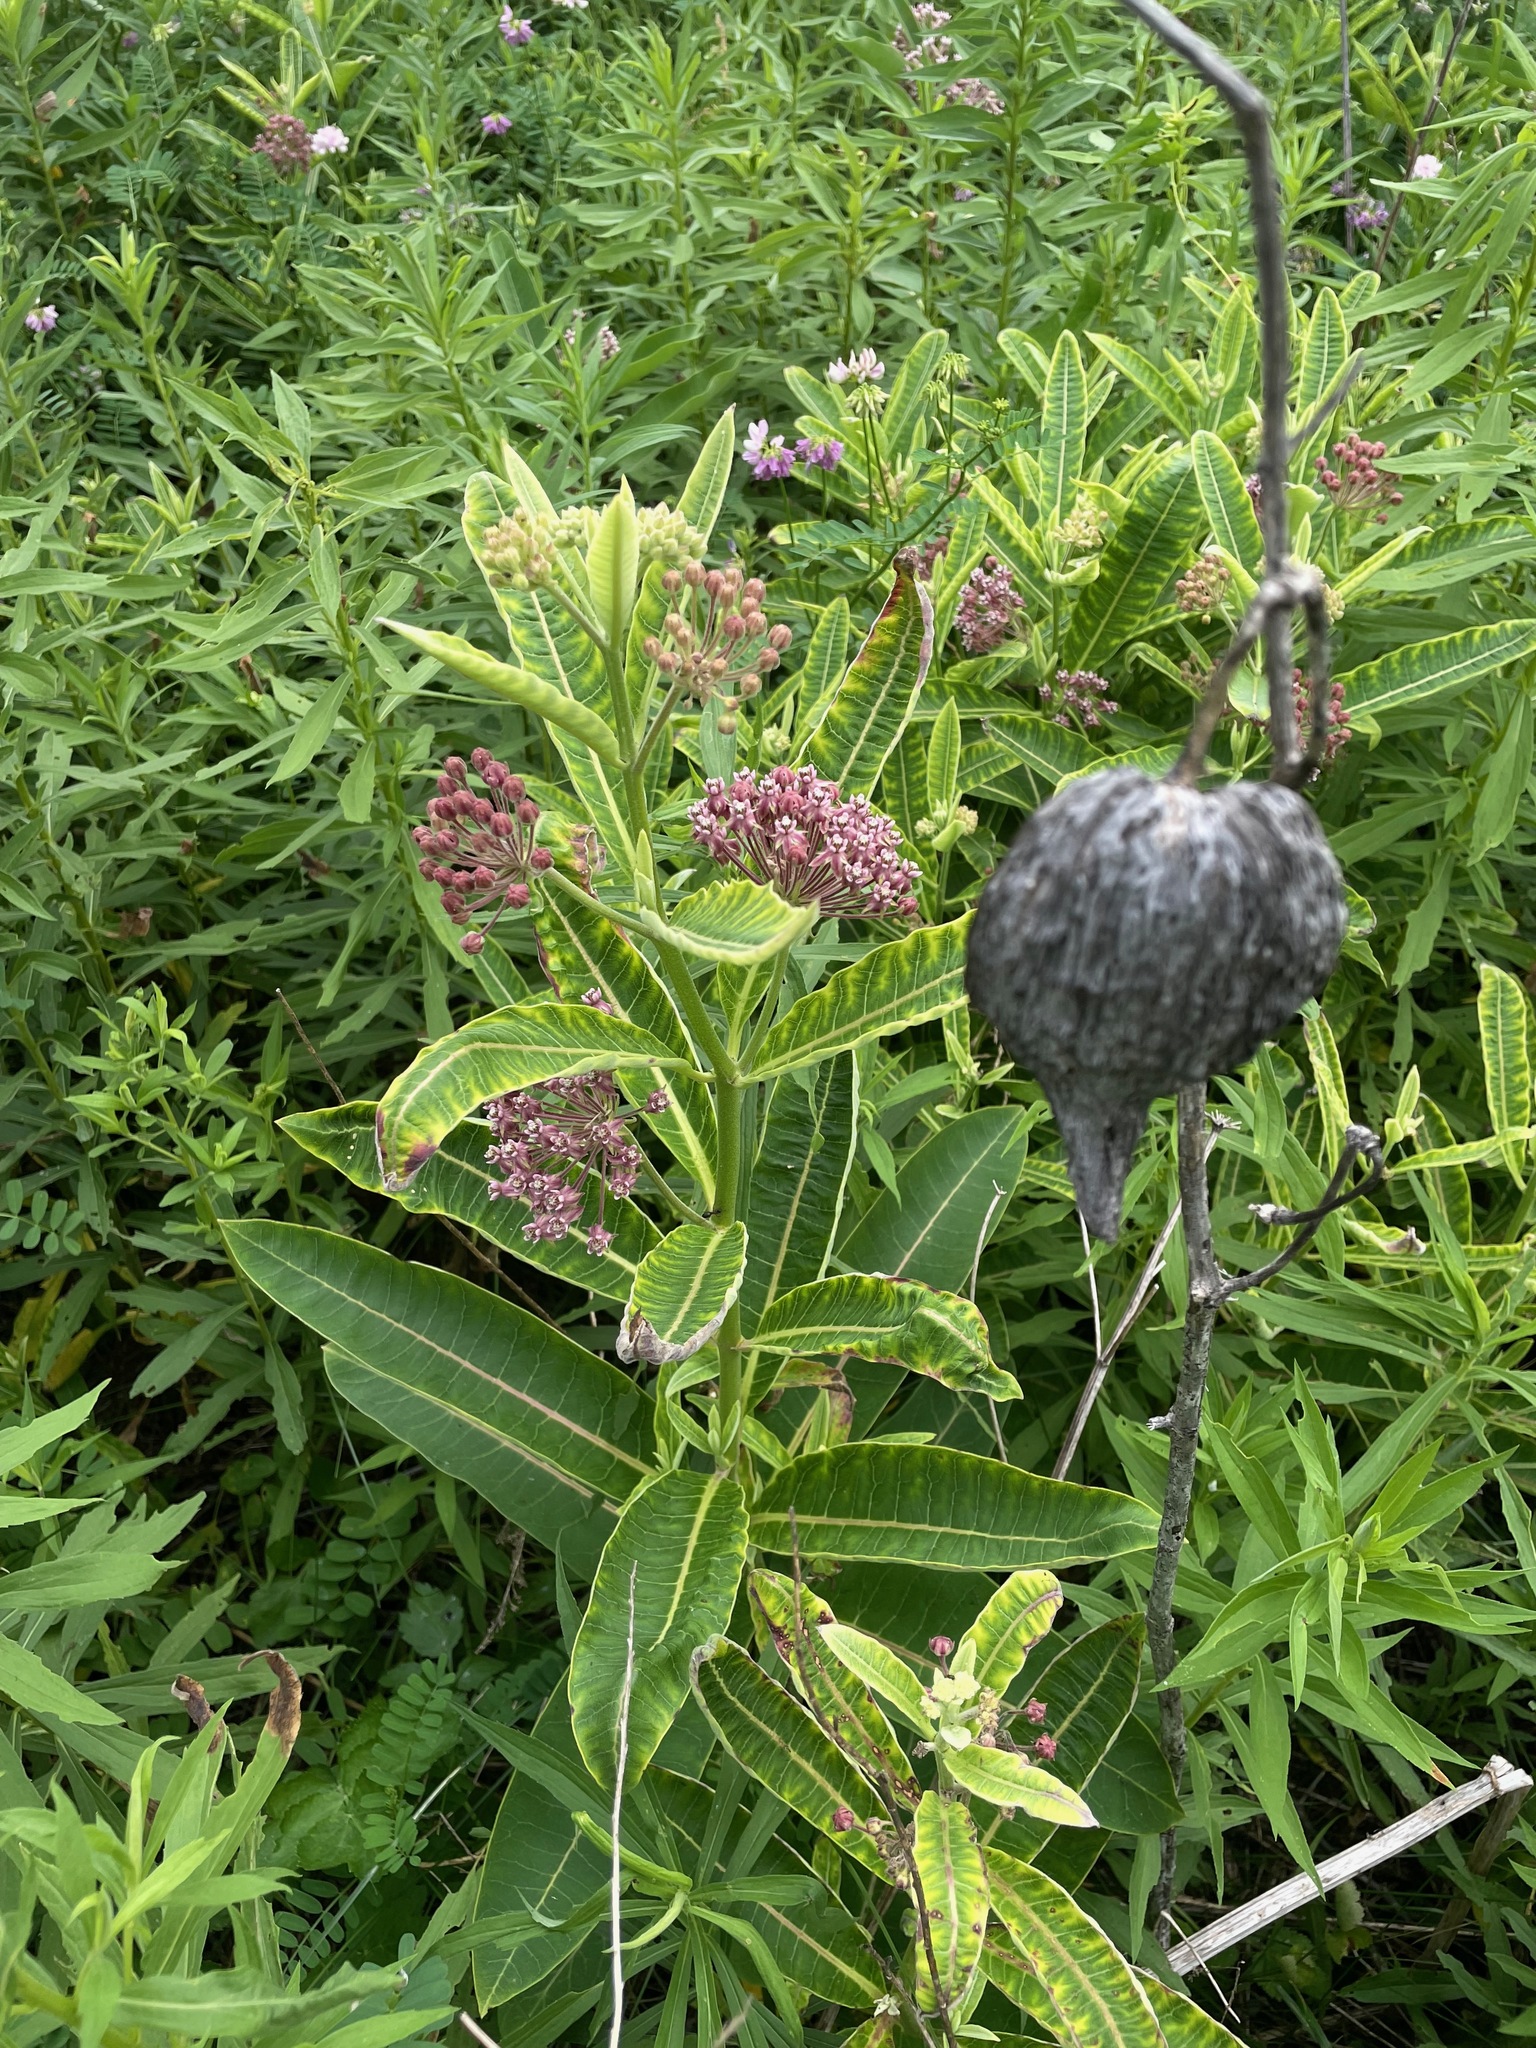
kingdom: Plantae
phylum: Tracheophyta
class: Magnoliopsida
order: Gentianales
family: Apocynaceae
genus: Asclepias
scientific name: Asclepias syriaca
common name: Common milkweed
